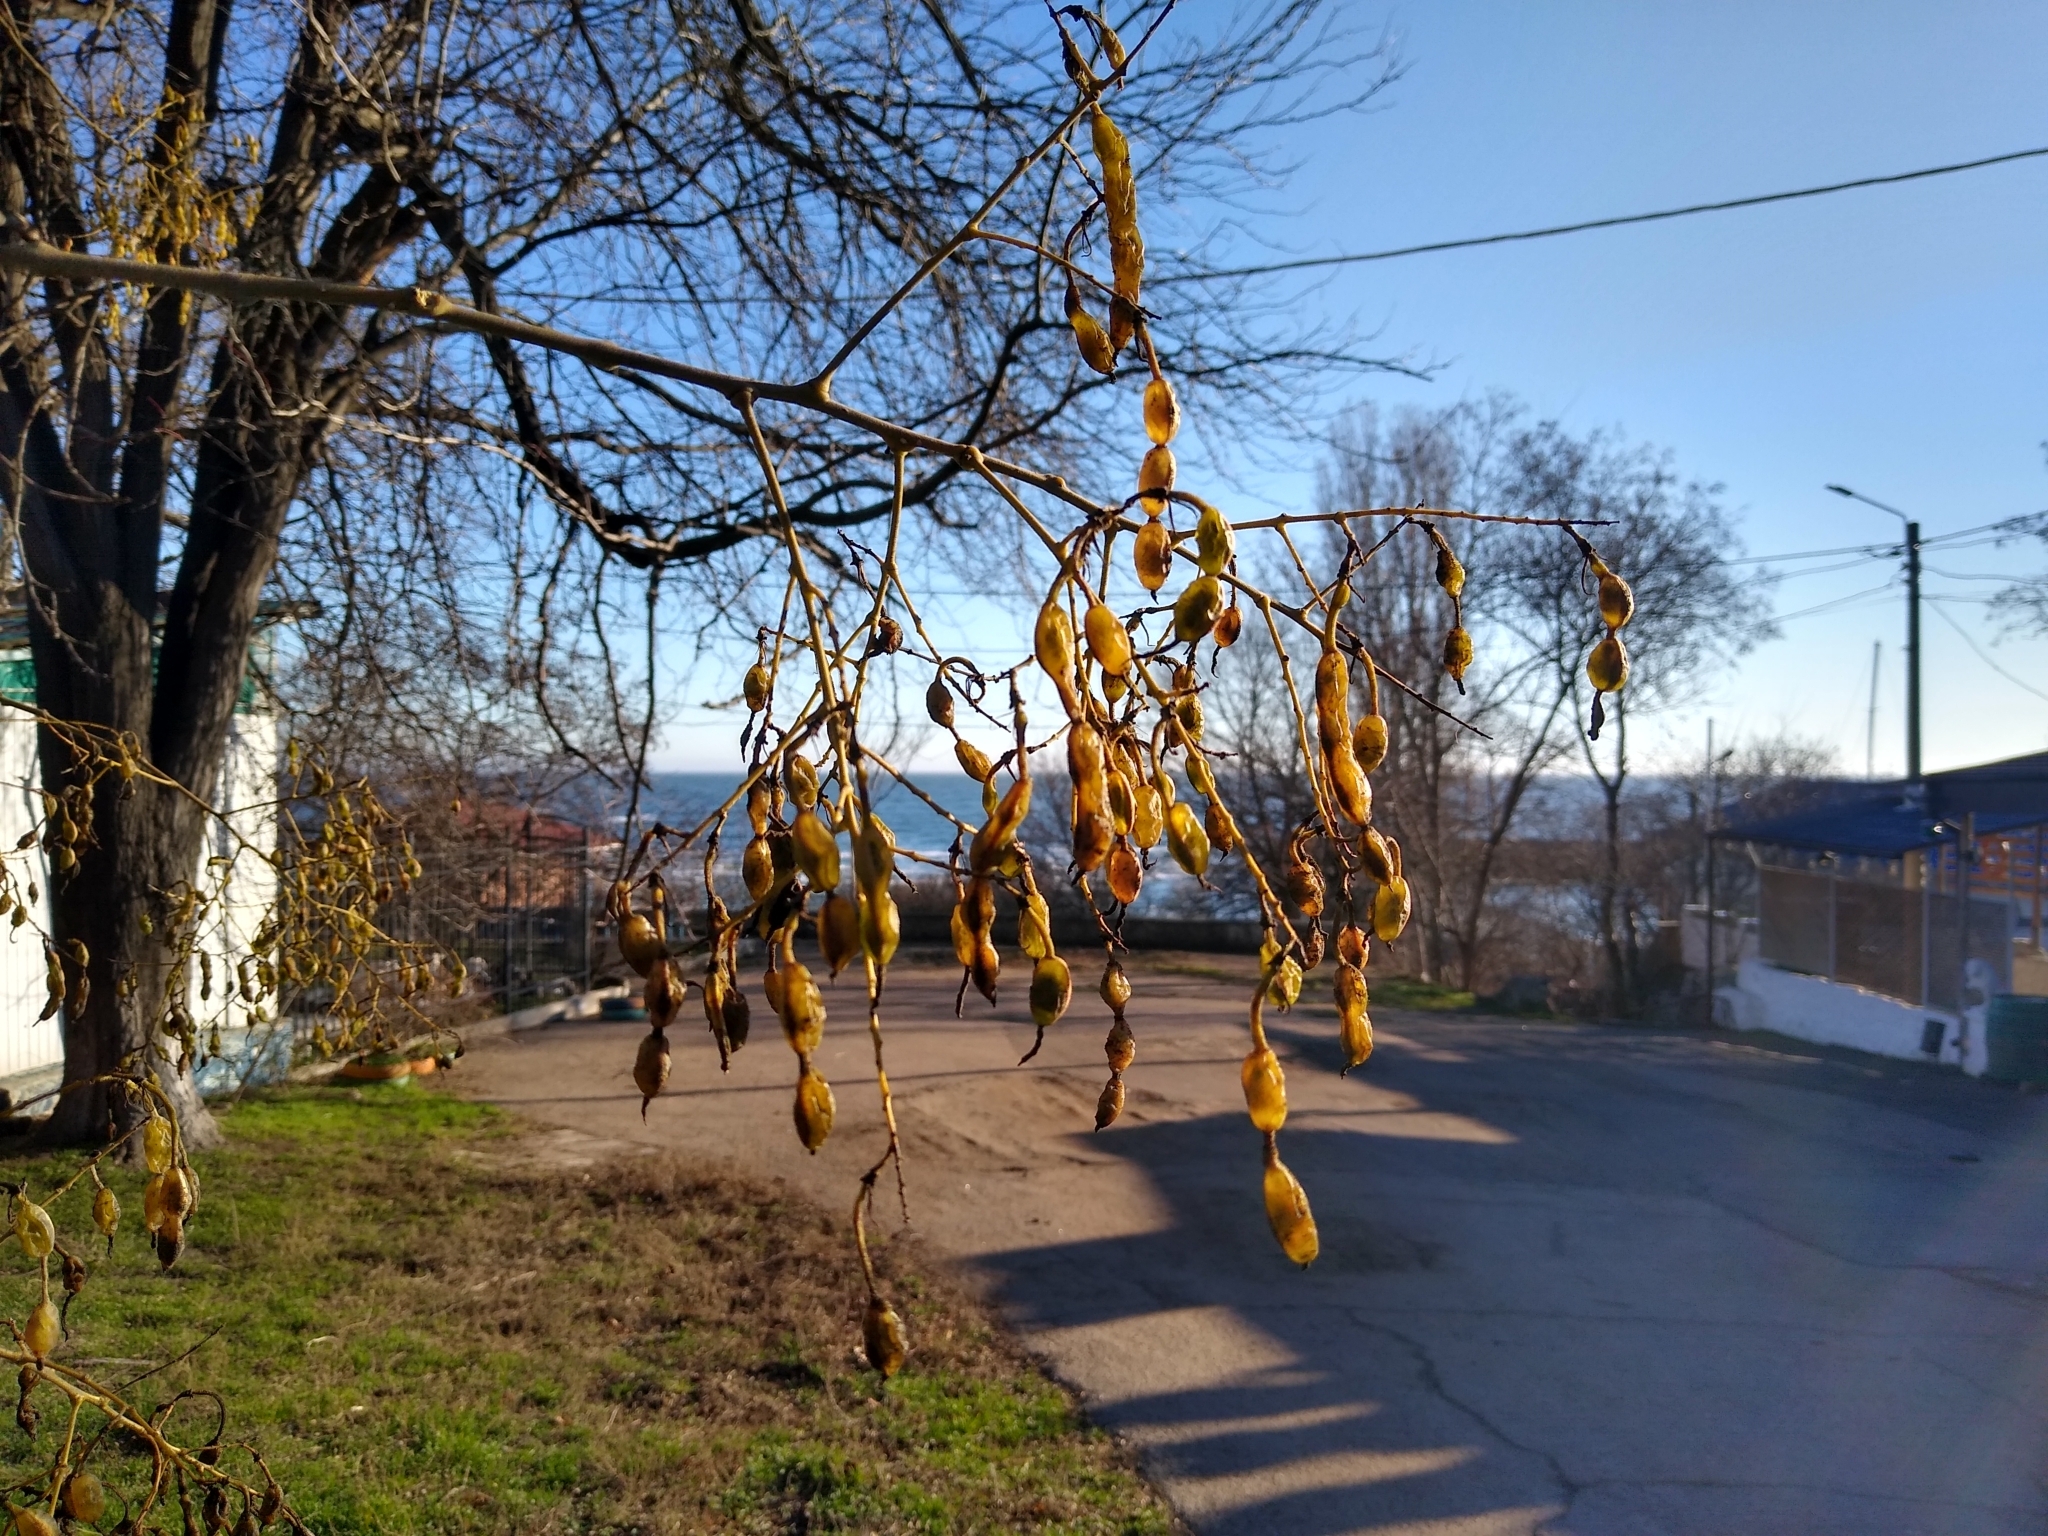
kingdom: Plantae
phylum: Tracheophyta
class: Magnoliopsida
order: Fabales
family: Fabaceae
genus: Styphnolobium
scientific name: Styphnolobium japonicum
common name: Chinese scholartree
